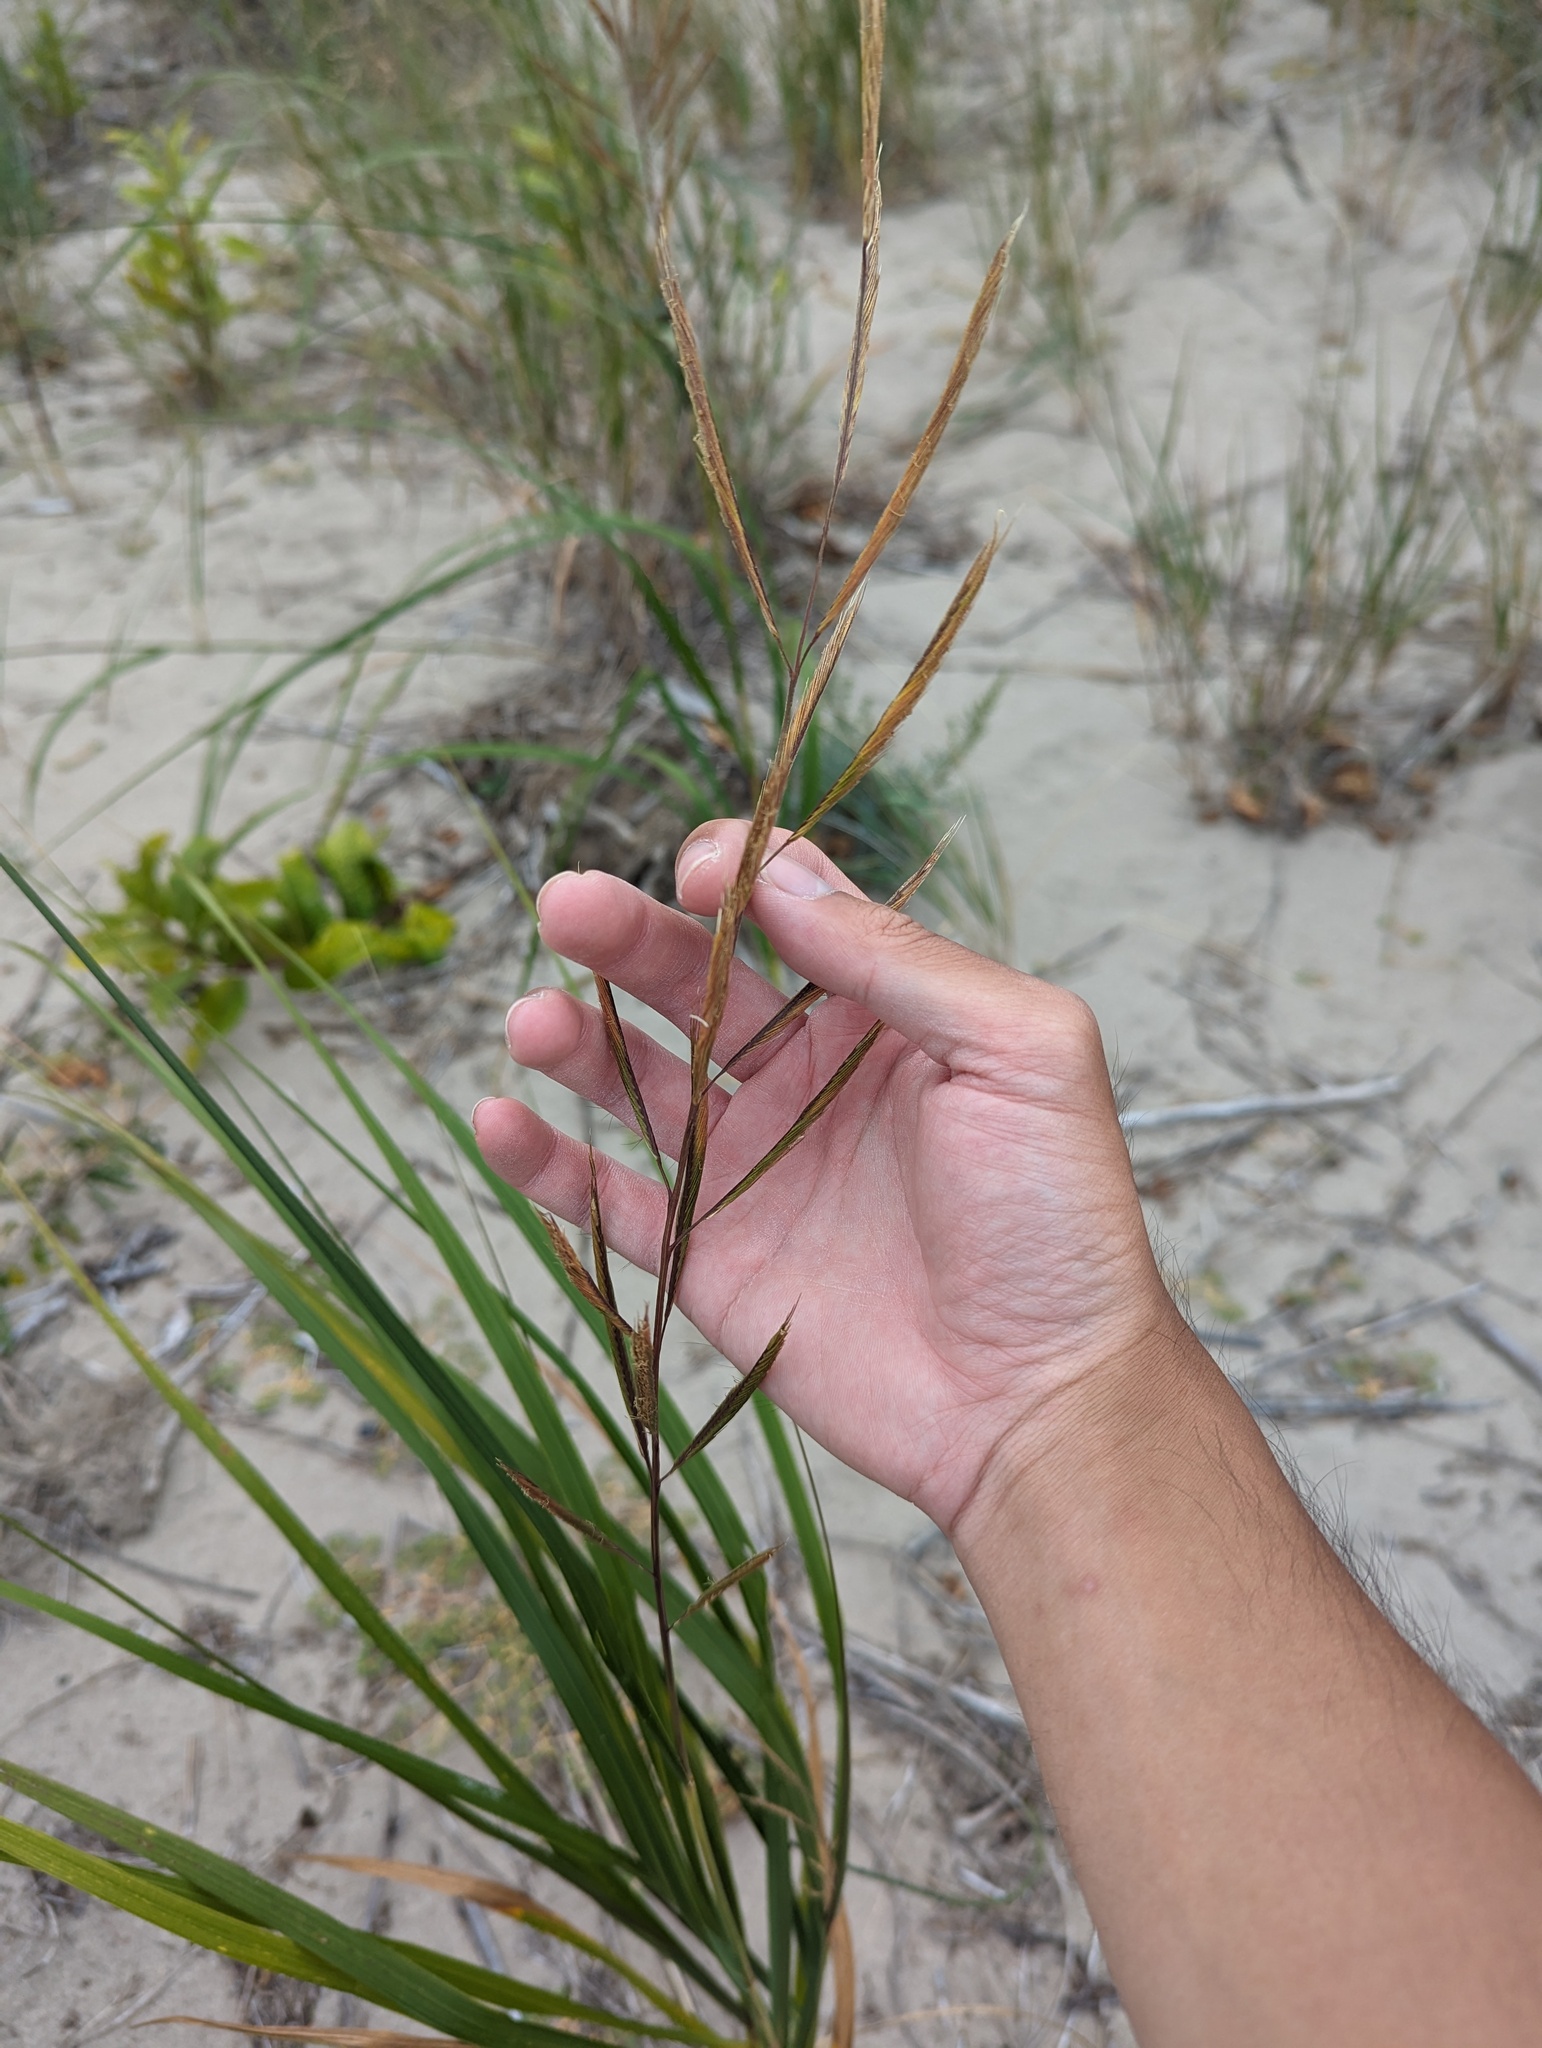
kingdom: Plantae
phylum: Tracheophyta
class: Liliopsida
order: Poales
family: Poaceae
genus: Sporobolus
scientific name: Sporobolus michauxianus
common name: Freshwater cordgrass
